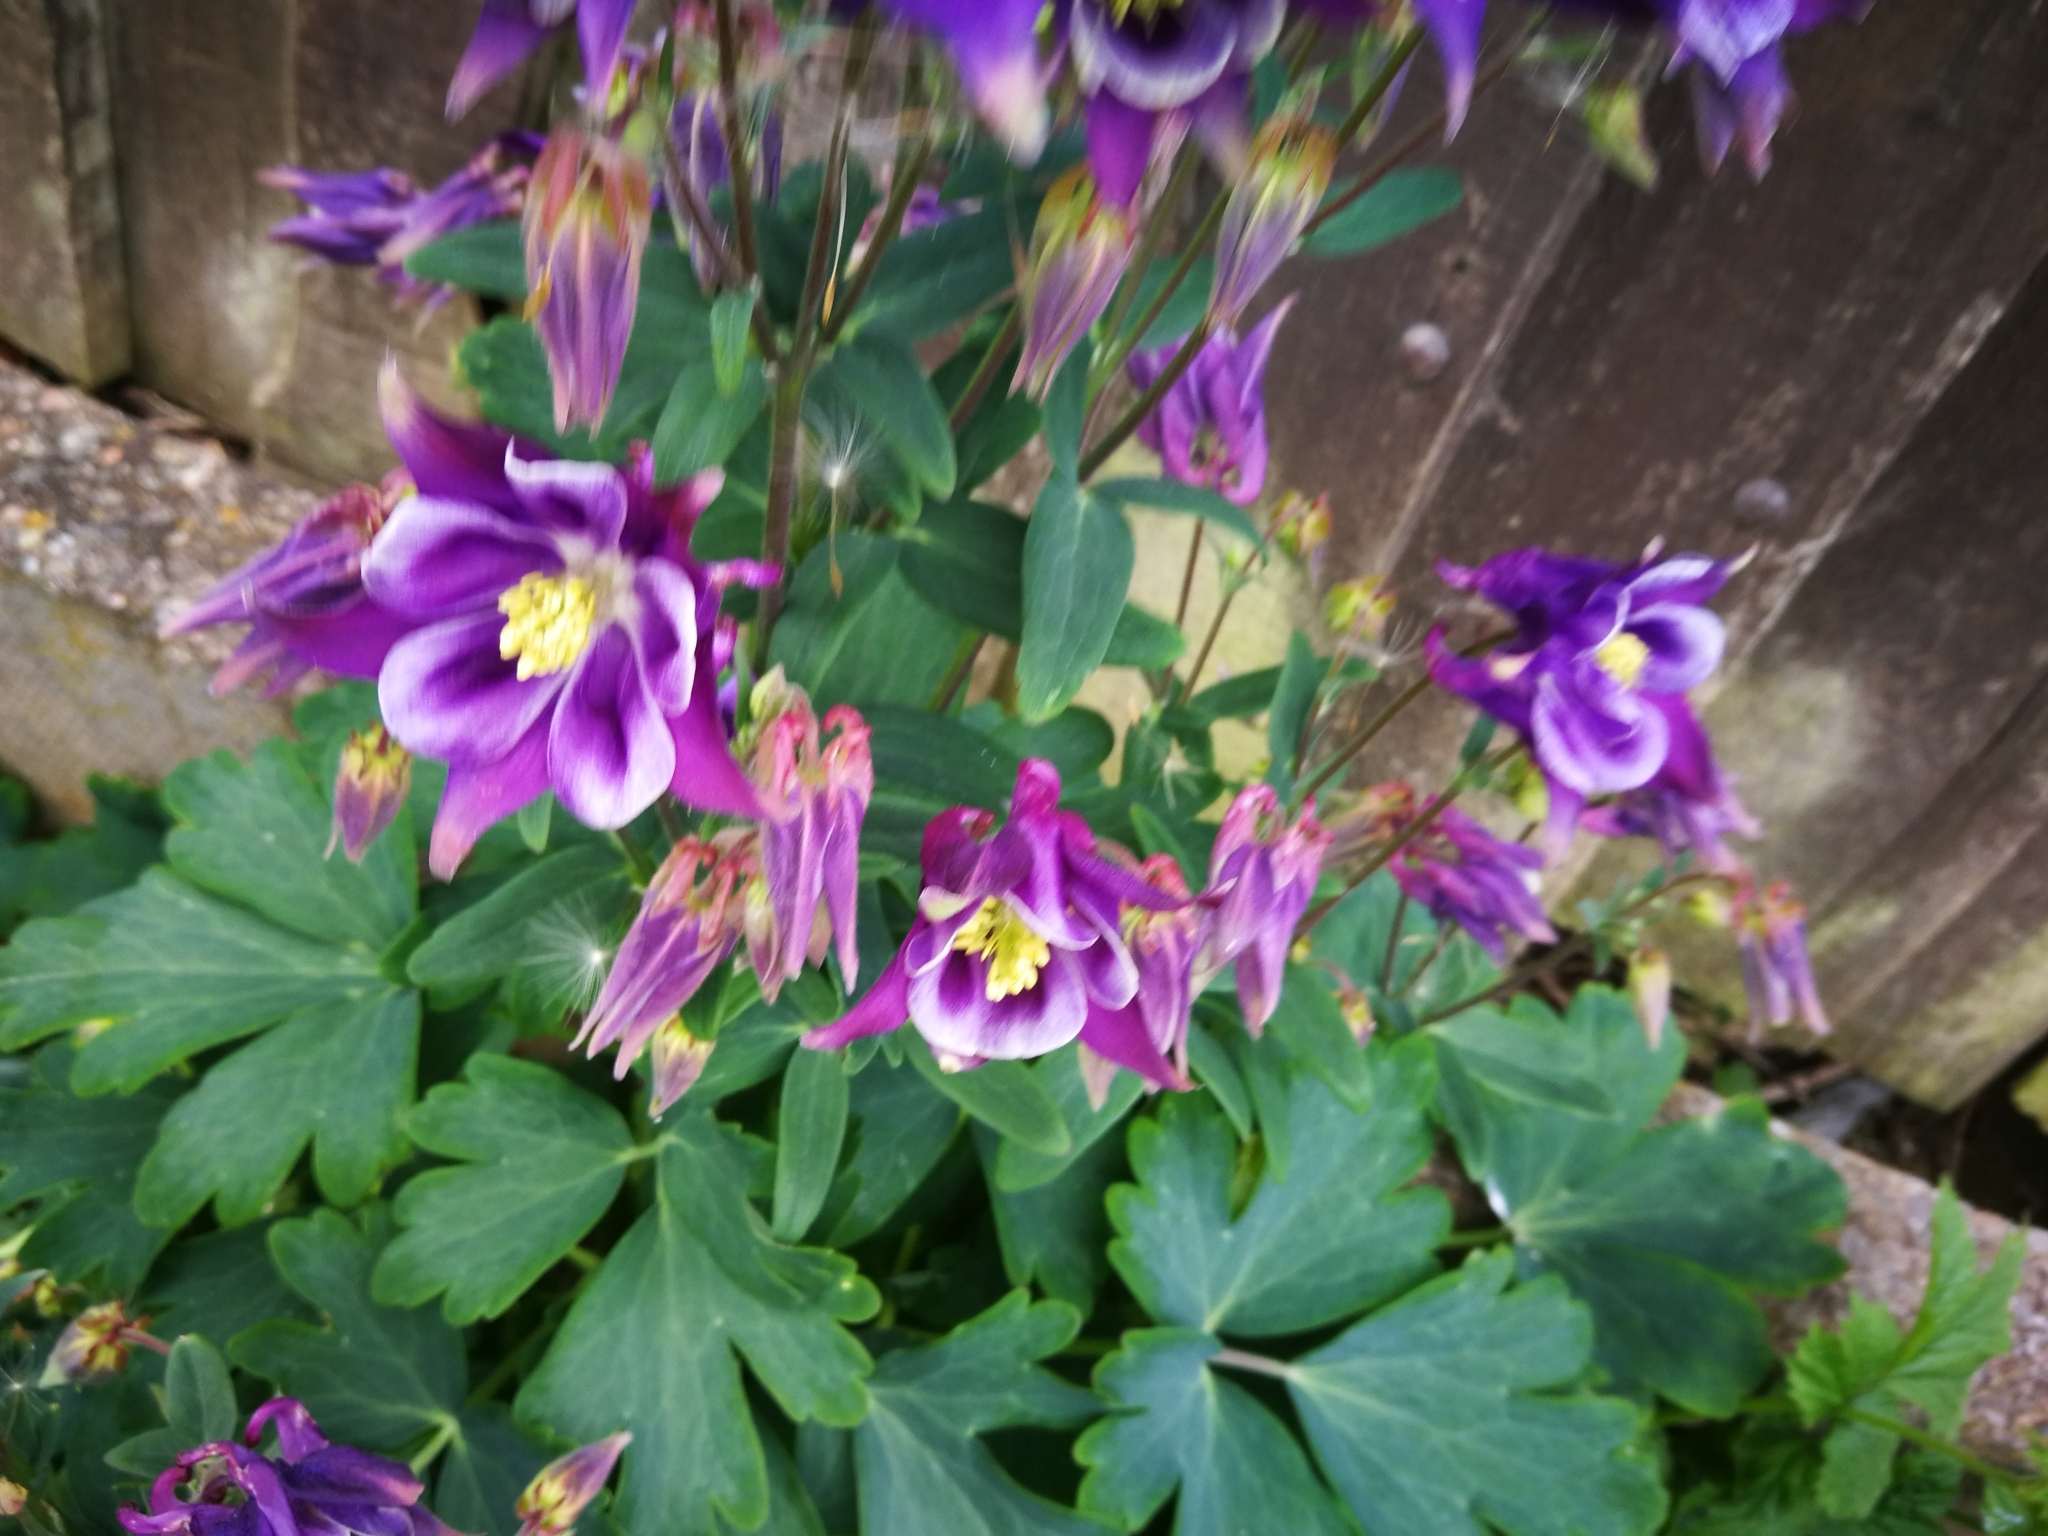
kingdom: Plantae
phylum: Tracheophyta
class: Magnoliopsida
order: Ranunculales
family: Ranunculaceae
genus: Aquilegia
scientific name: Aquilegia vulgaris
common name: Columbine
